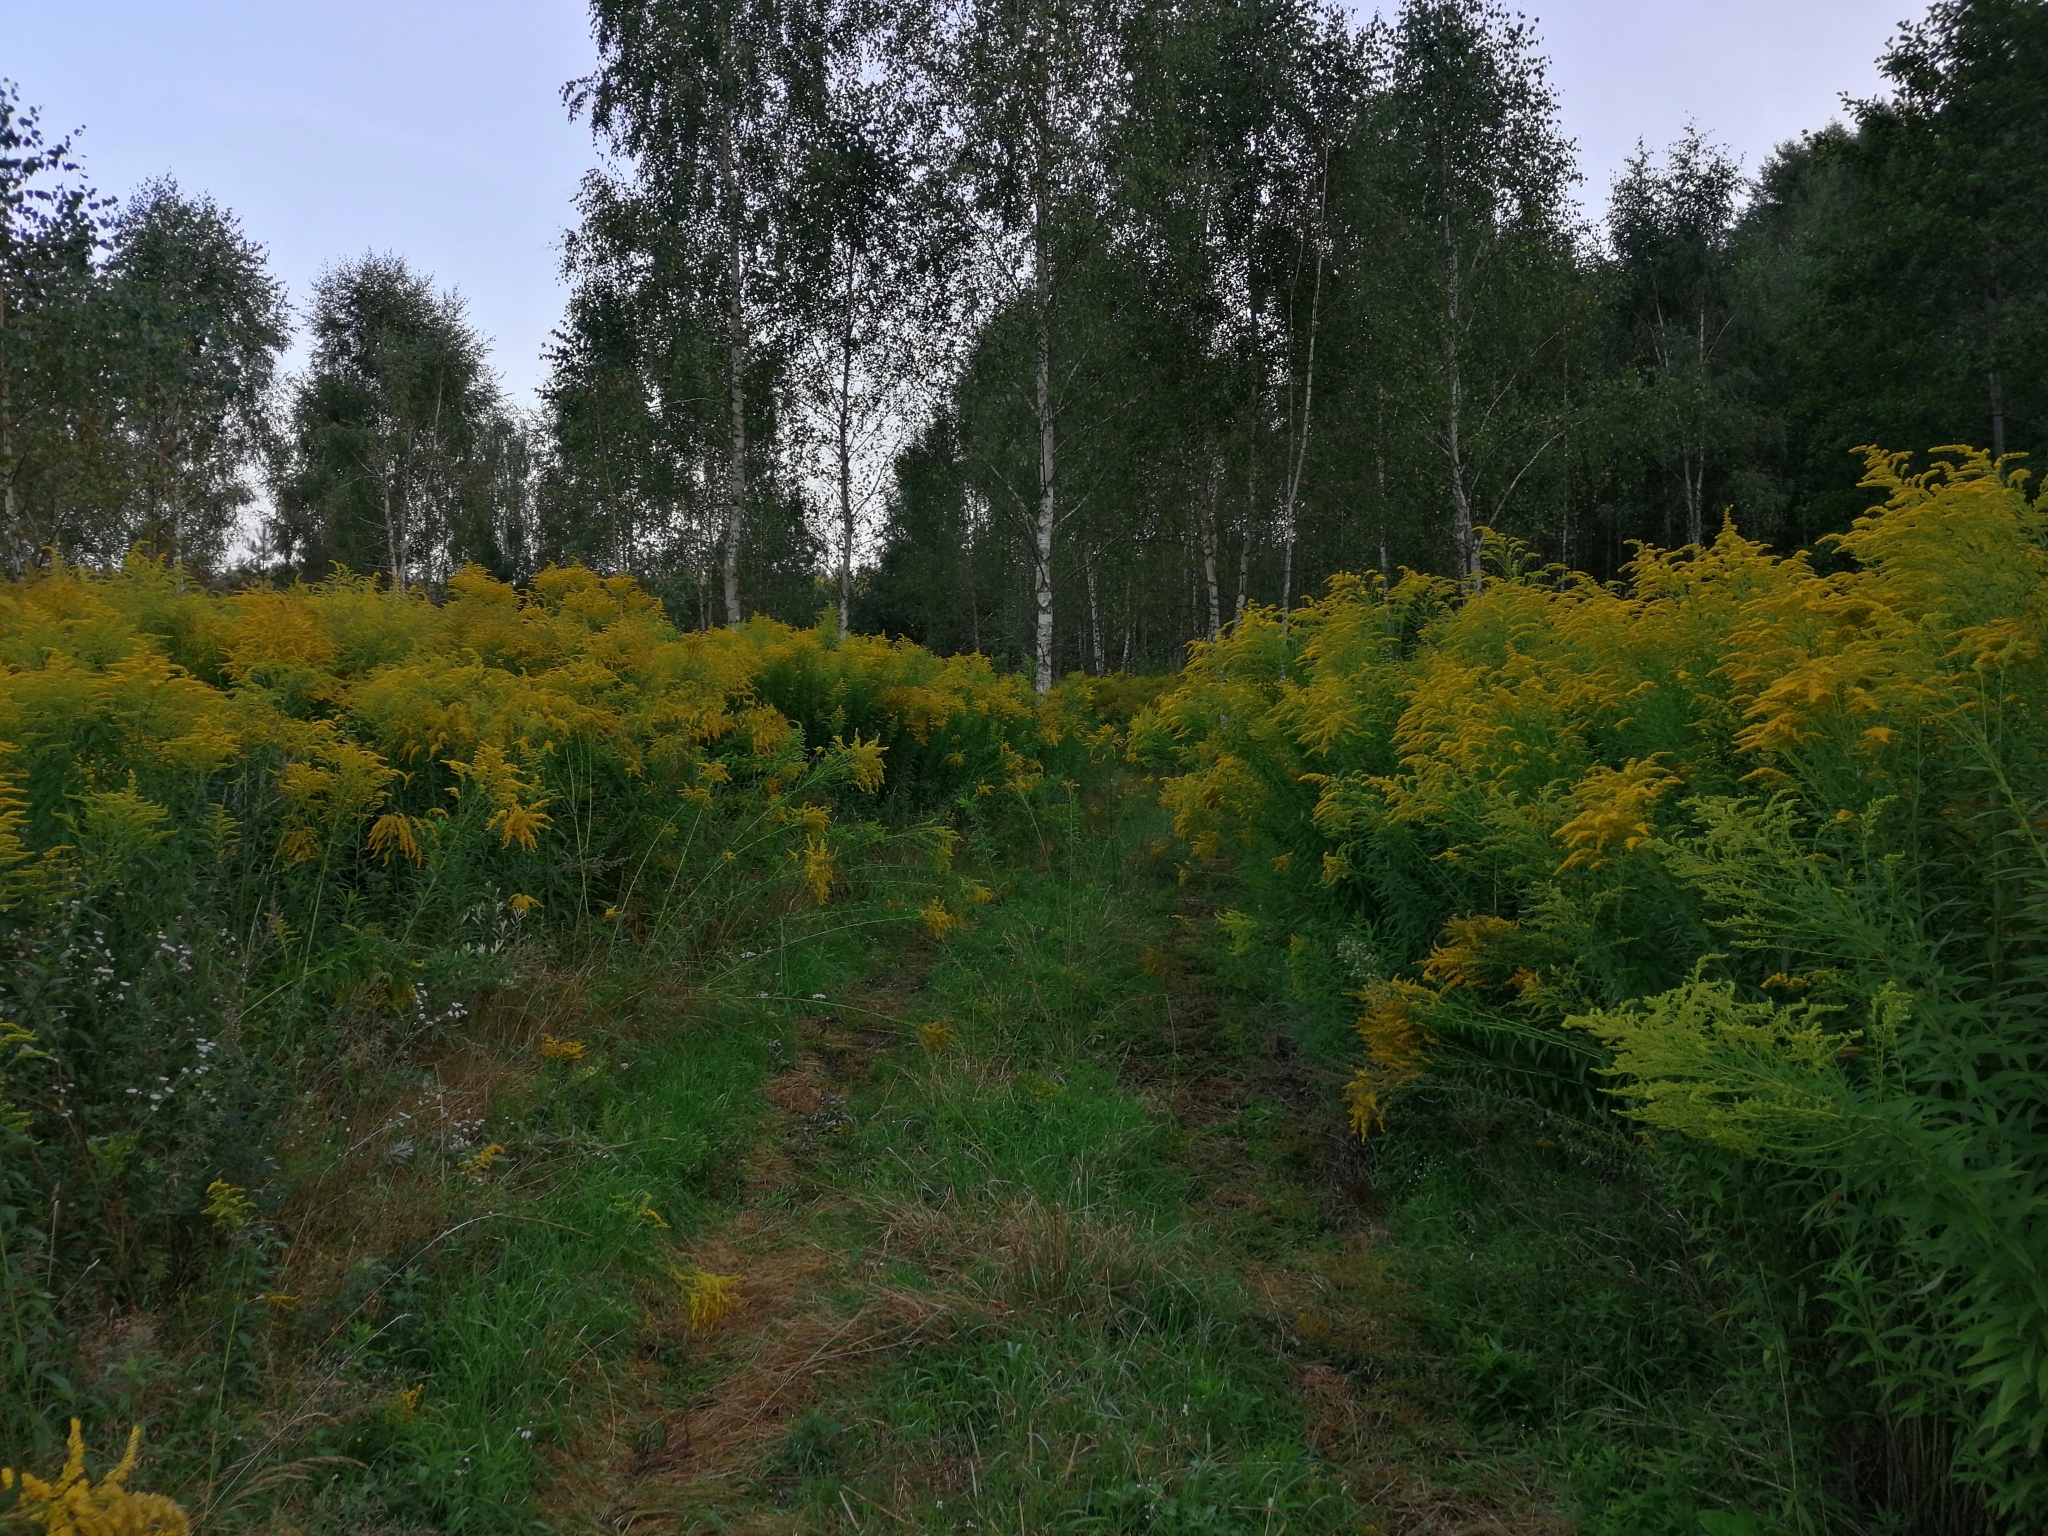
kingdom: Plantae
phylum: Tracheophyta
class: Magnoliopsida
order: Asterales
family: Asteraceae
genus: Solidago
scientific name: Solidago canadensis
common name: Canada goldenrod
